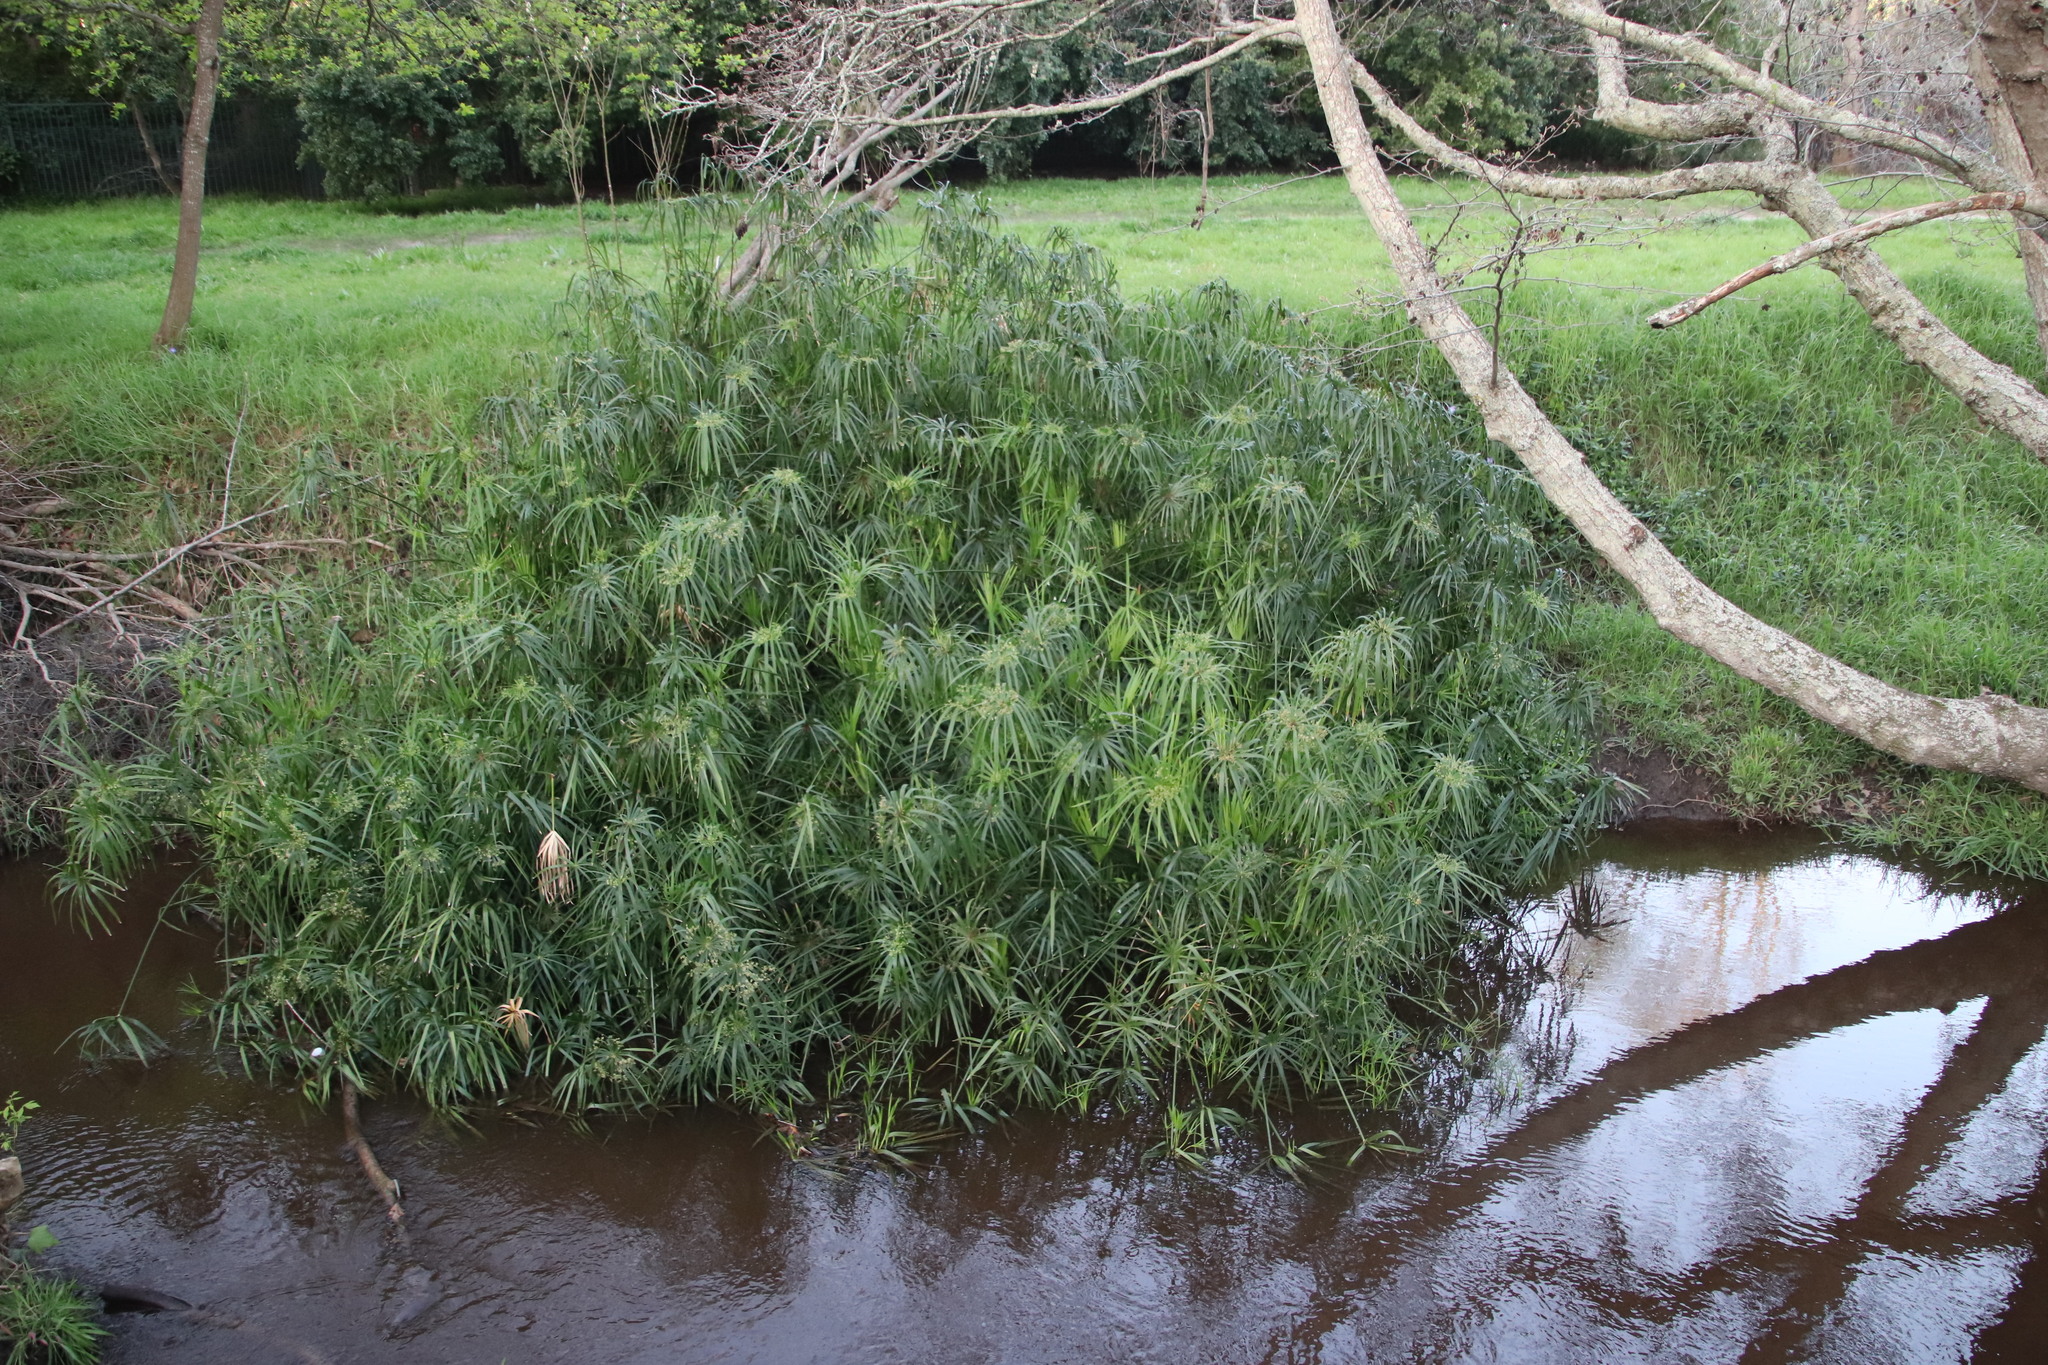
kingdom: Plantae
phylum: Tracheophyta
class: Liliopsida
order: Poales
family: Cyperaceae
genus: Cyperus
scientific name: Cyperus textilis
